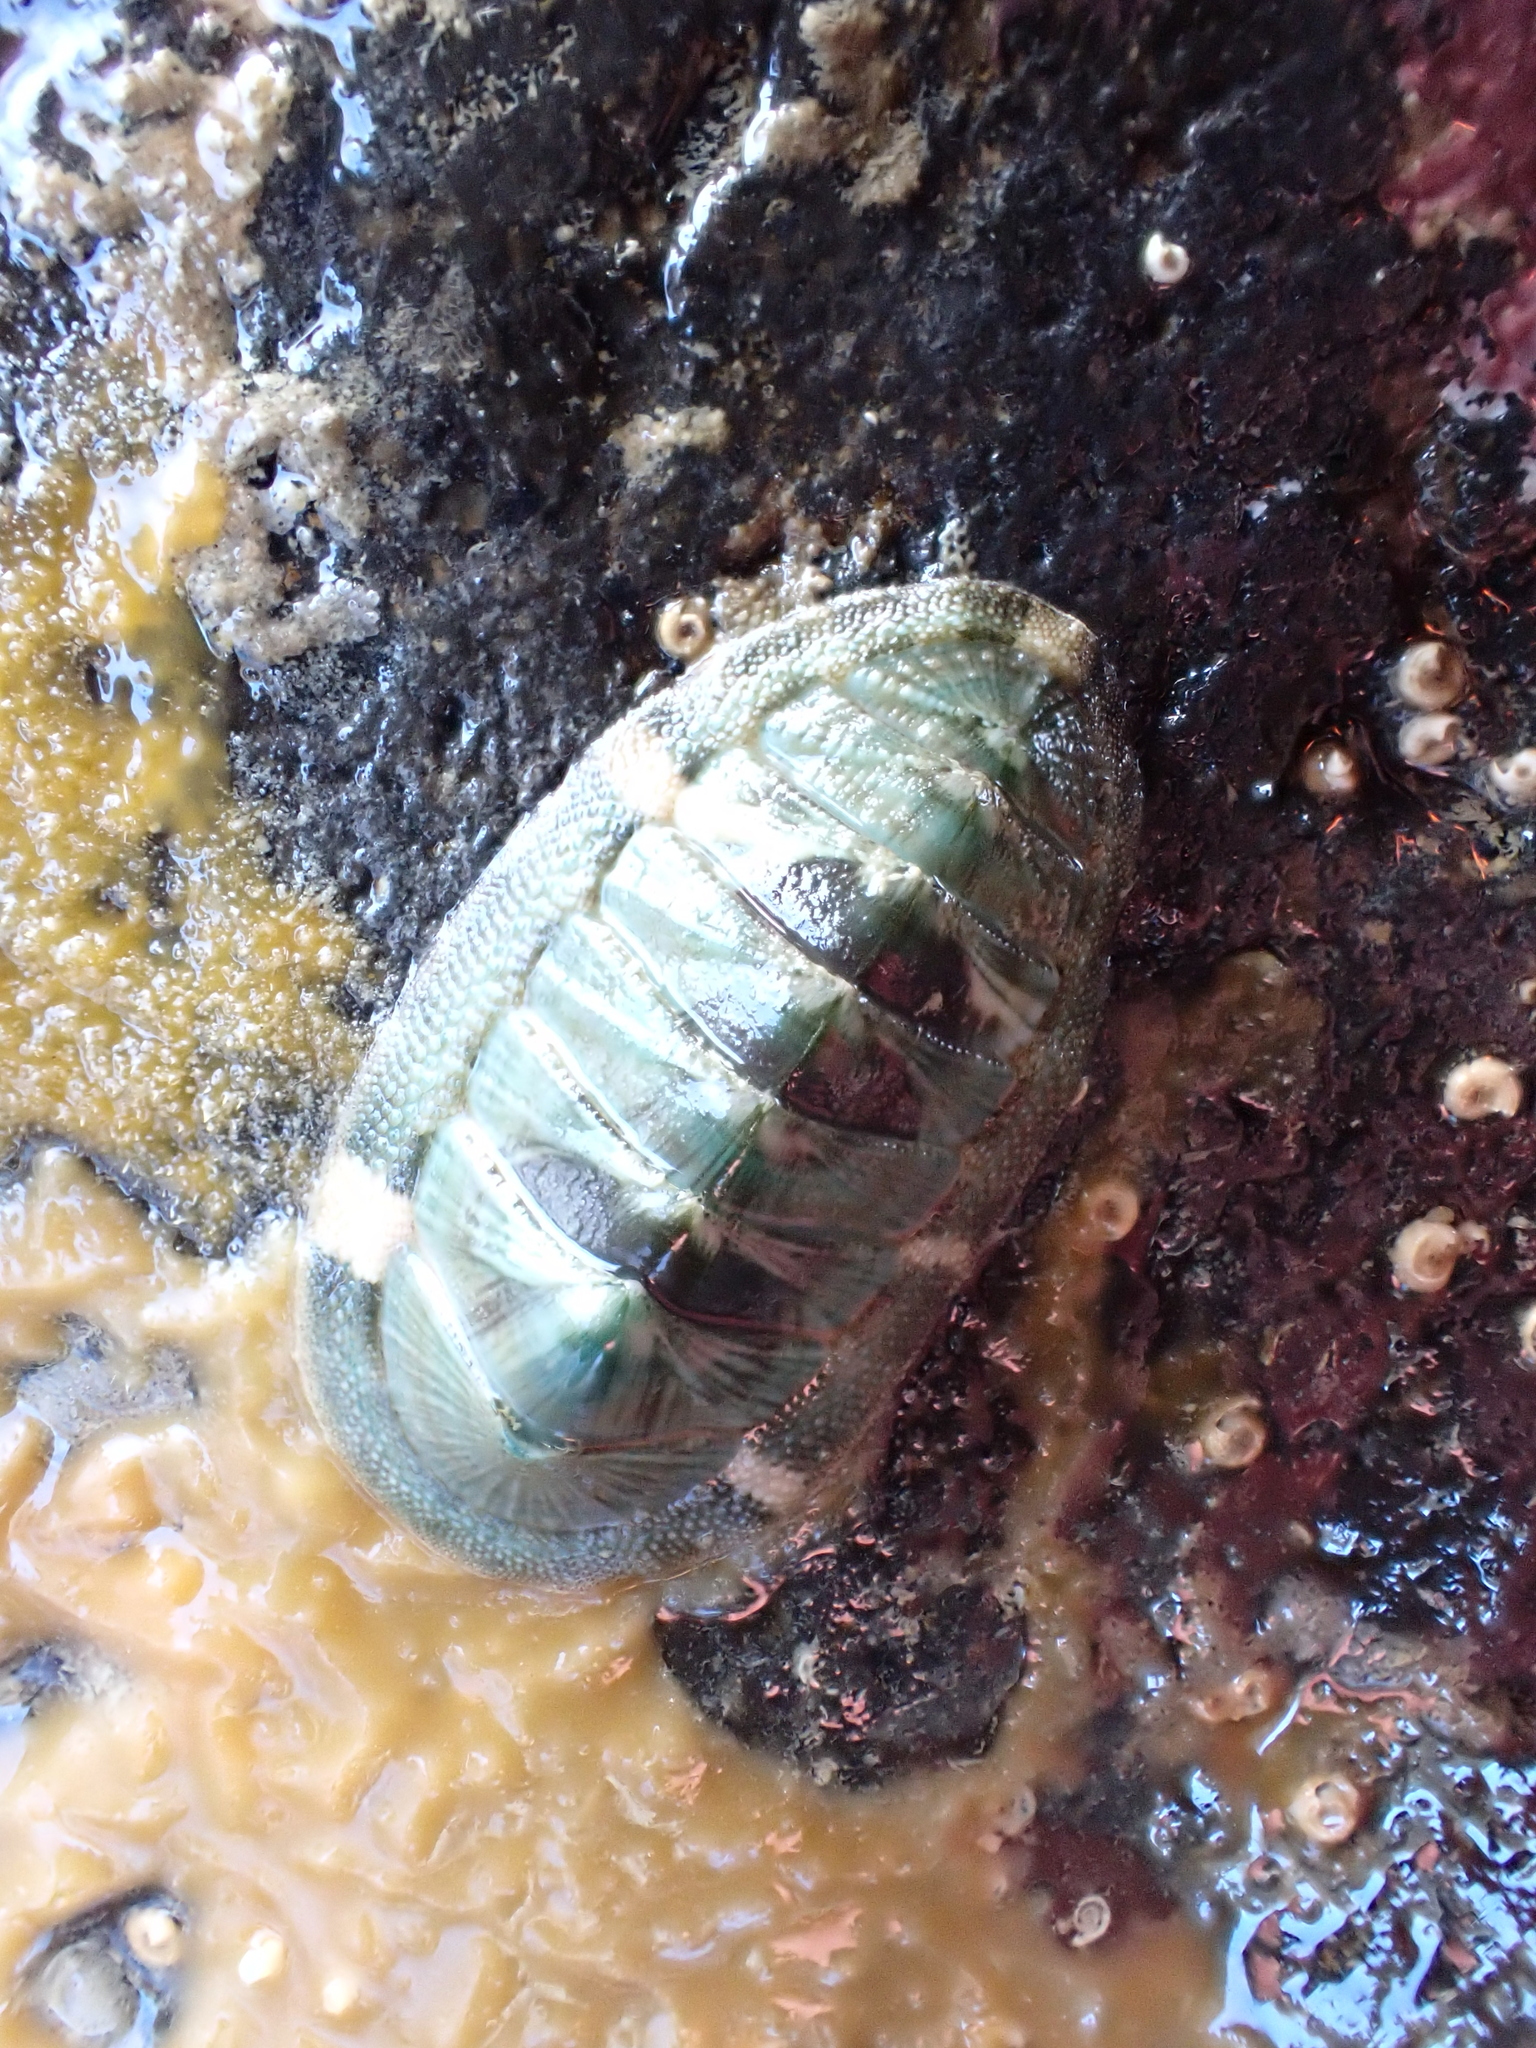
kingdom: Animalia
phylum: Mollusca
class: Polyplacophora
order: Chitonida
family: Chitonidae
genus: Rhyssoplax
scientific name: Rhyssoplax aerea
